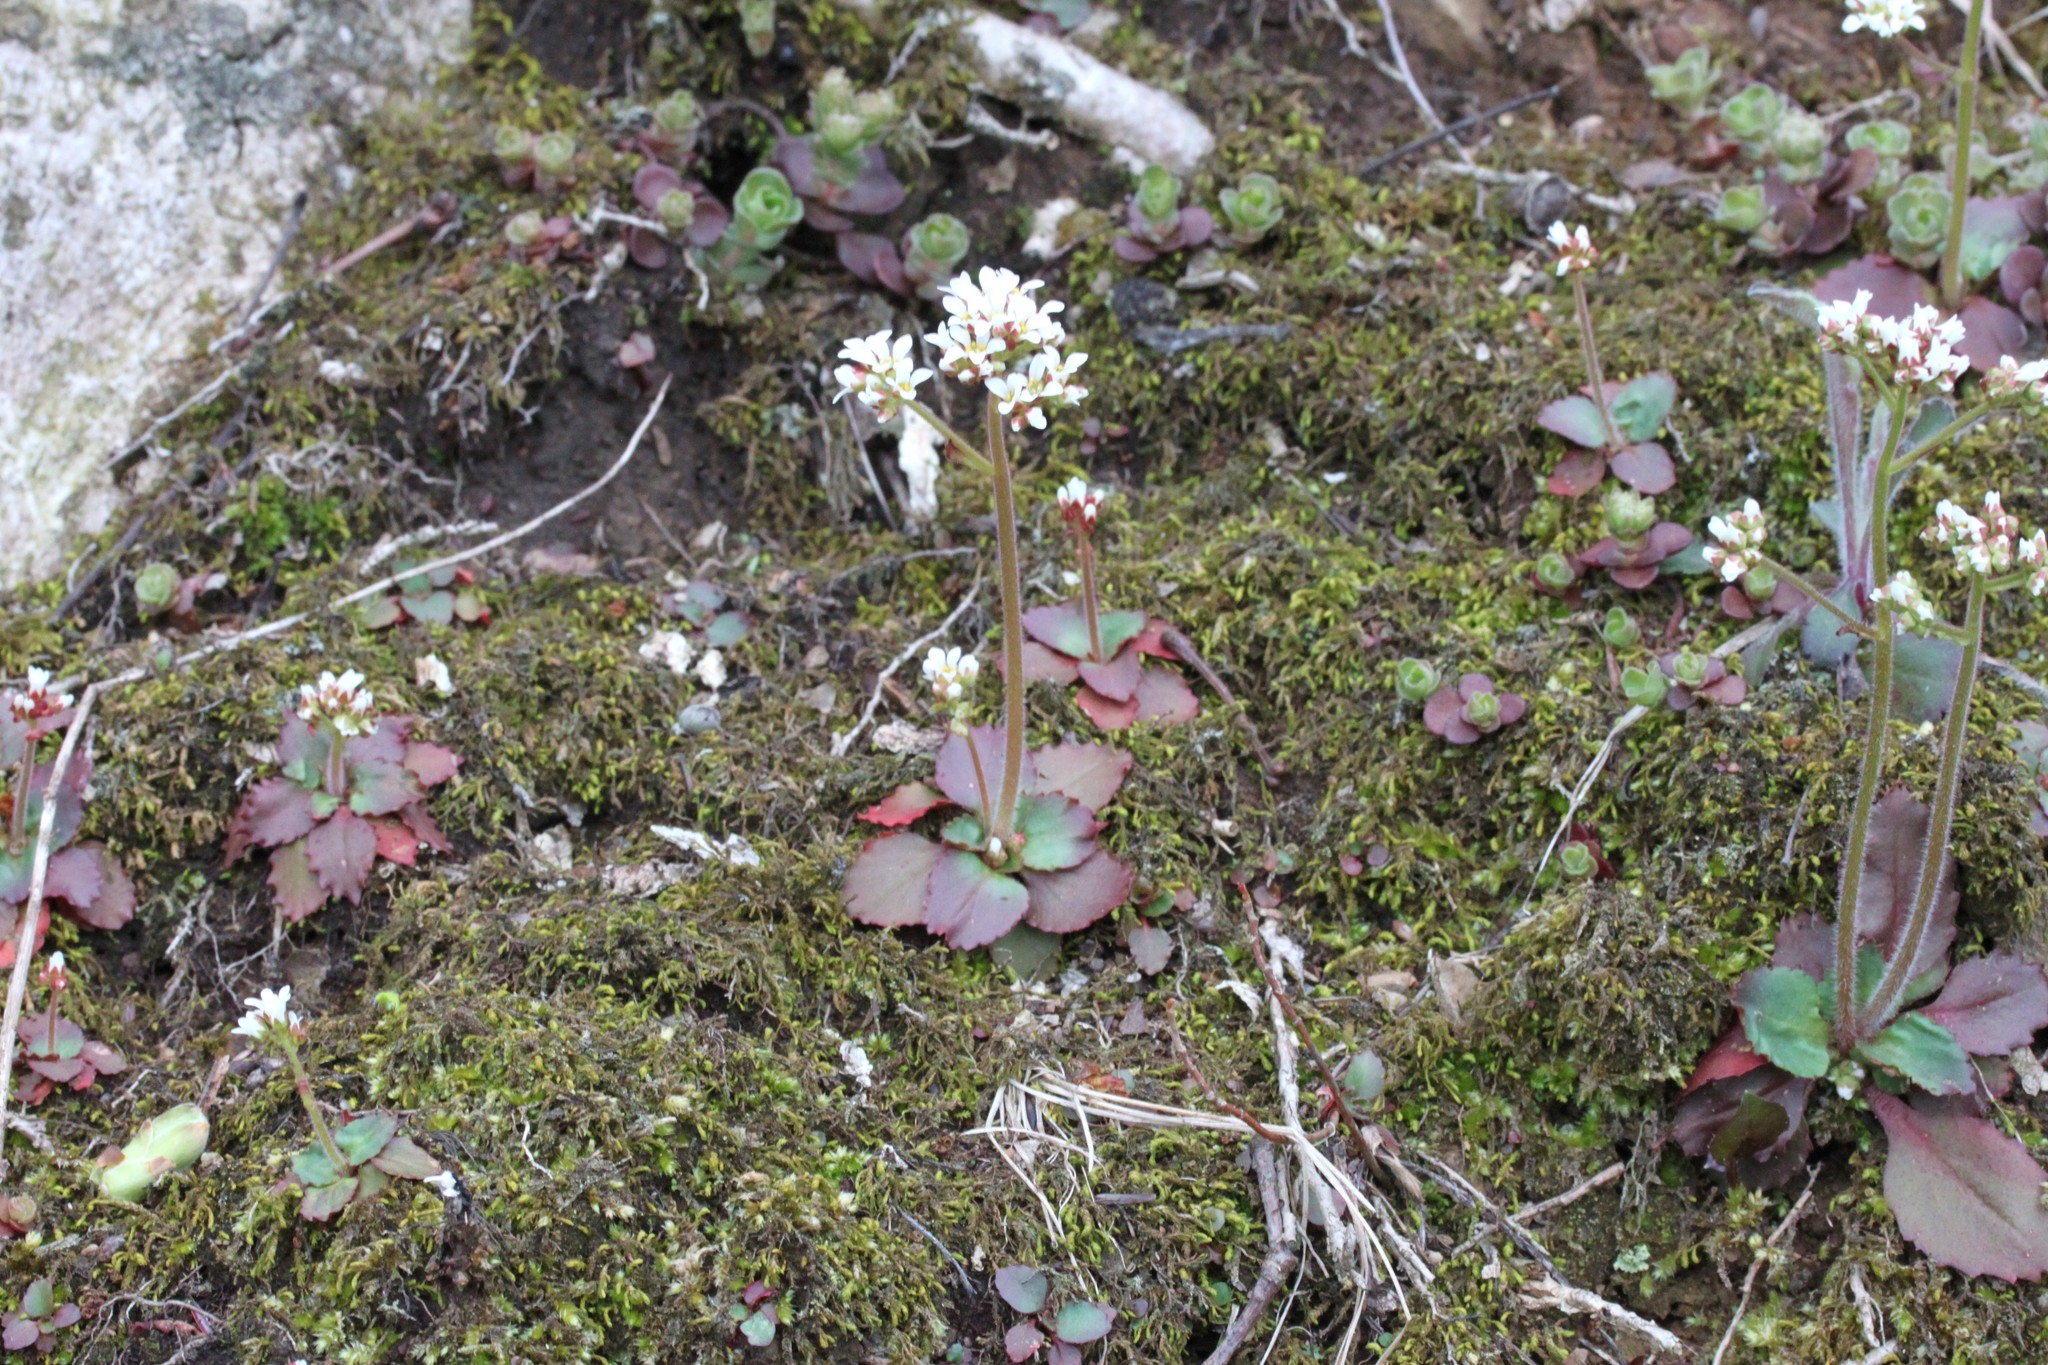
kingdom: Plantae
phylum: Tracheophyta
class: Magnoliopsida
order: Saxifragales
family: Saxifragaceae
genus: Micranthes
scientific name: Micranthes virginiensis
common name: Early saxifrage
